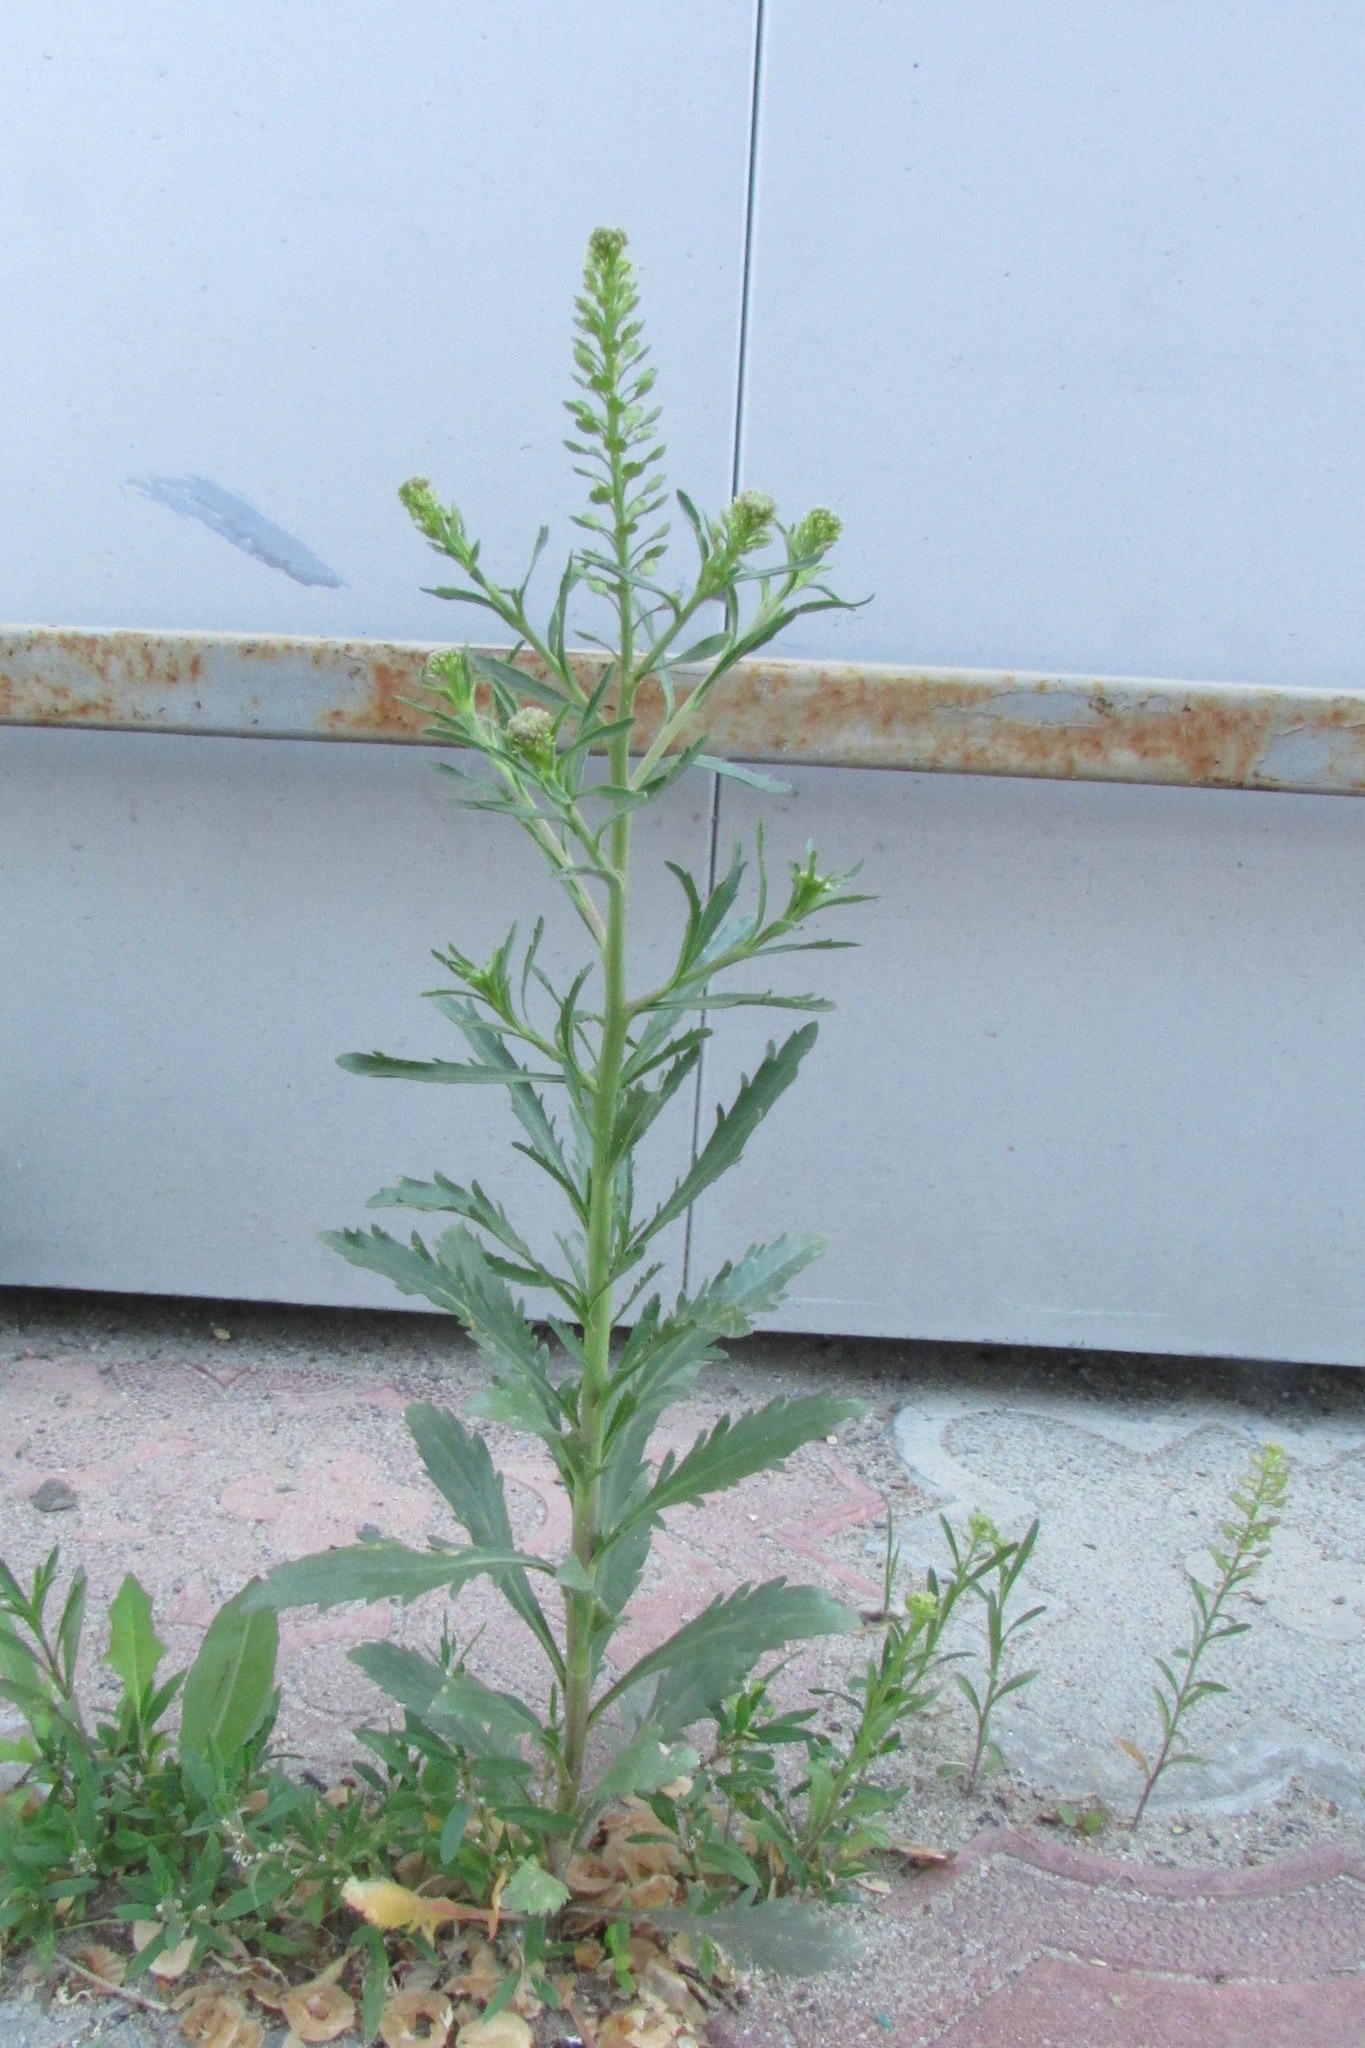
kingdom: Plantae
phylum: Tracheophyta
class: Magnoliopsida
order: Brassicales
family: Brassicaceae
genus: Lepidium
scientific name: Lepidium densiflorum
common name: Miner's pepperwort
